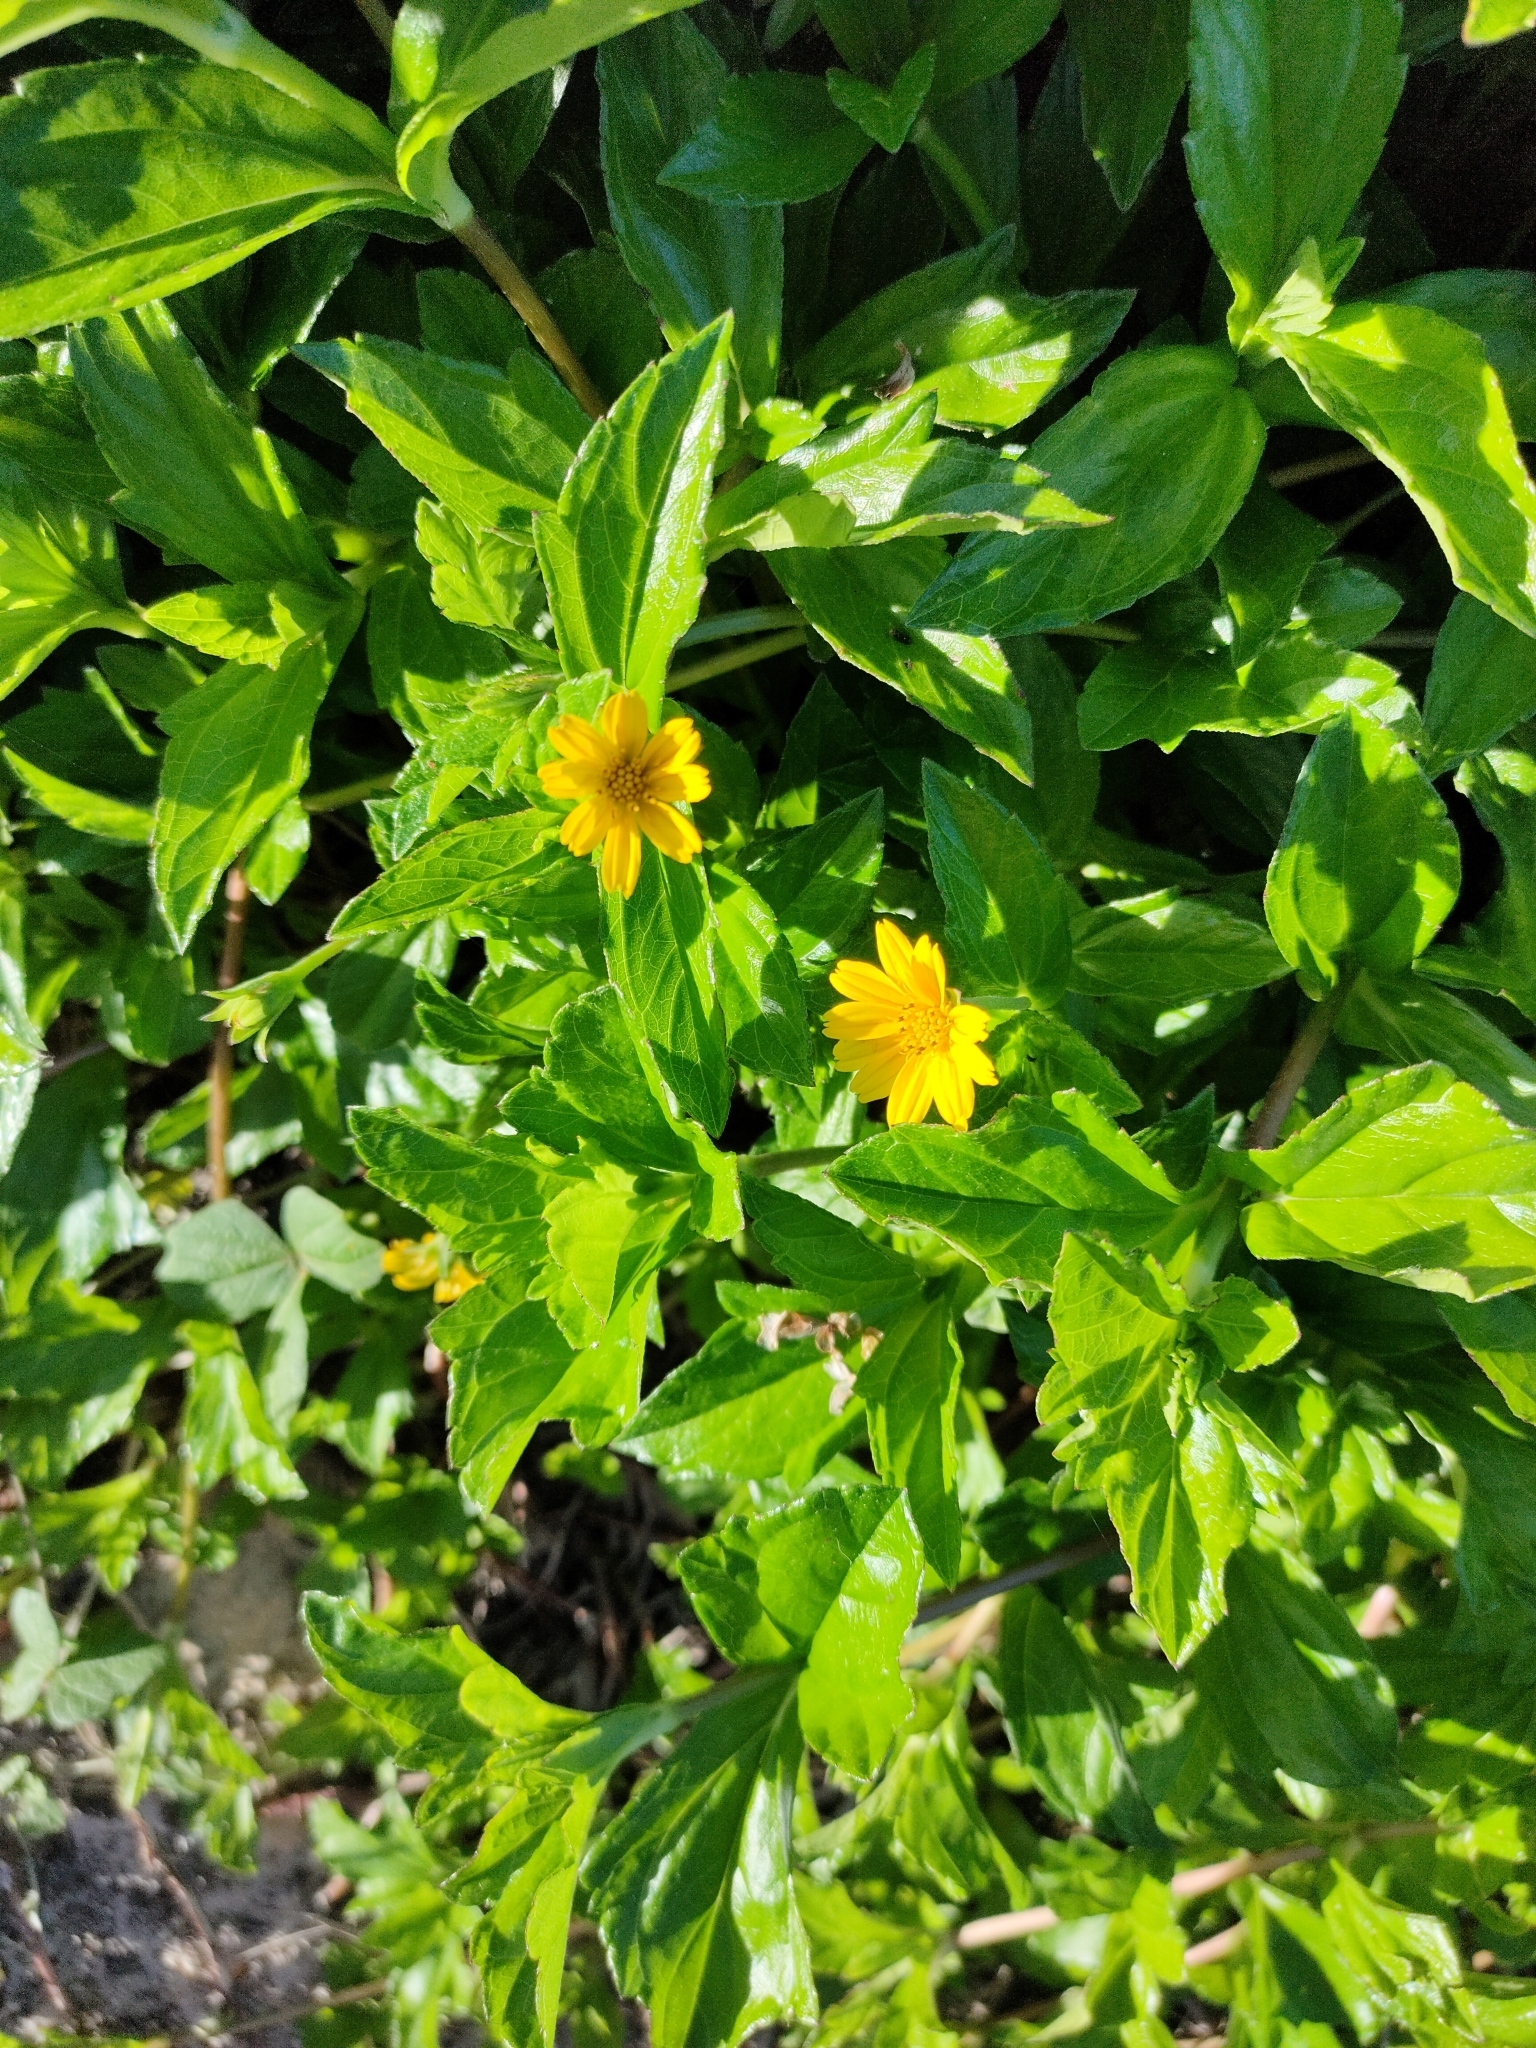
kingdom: Plantae
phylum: Tracheophyta
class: Magnoliopsida
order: Asterales
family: Asteraceae
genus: Sphagneticola
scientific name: Sphagneticola trilobata
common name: Bay biscayne creeping-oxeye
